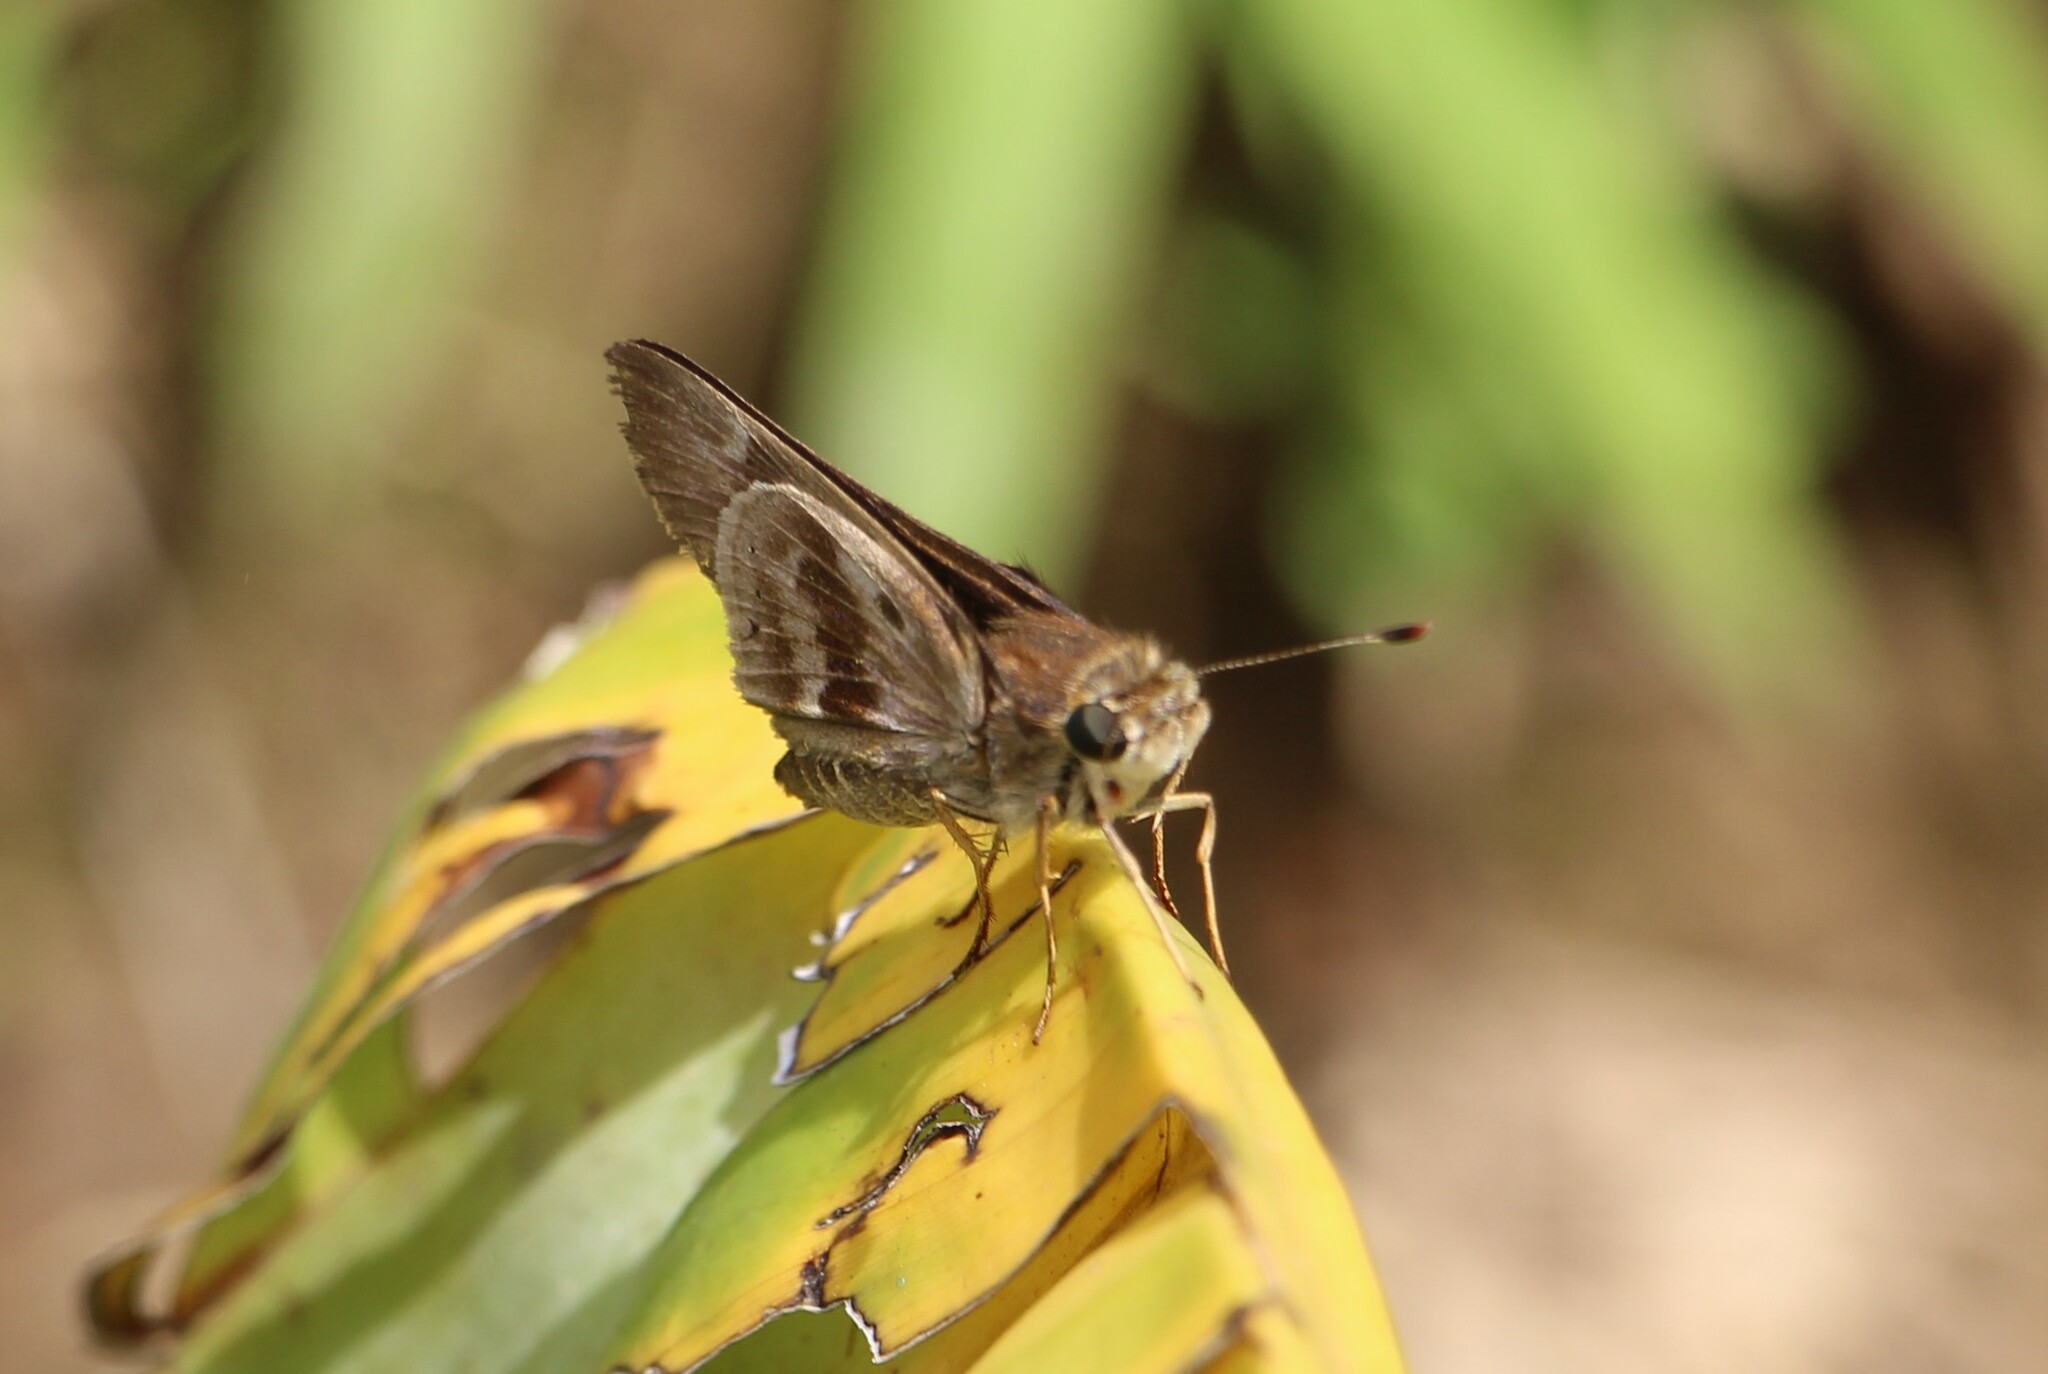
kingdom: Animalia
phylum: Arthropoda
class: Insecta
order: Lepidoptera
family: Hesperiidae
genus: Nyctelius
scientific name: Nyctelius nyctelius
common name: Violet-banded skipper
